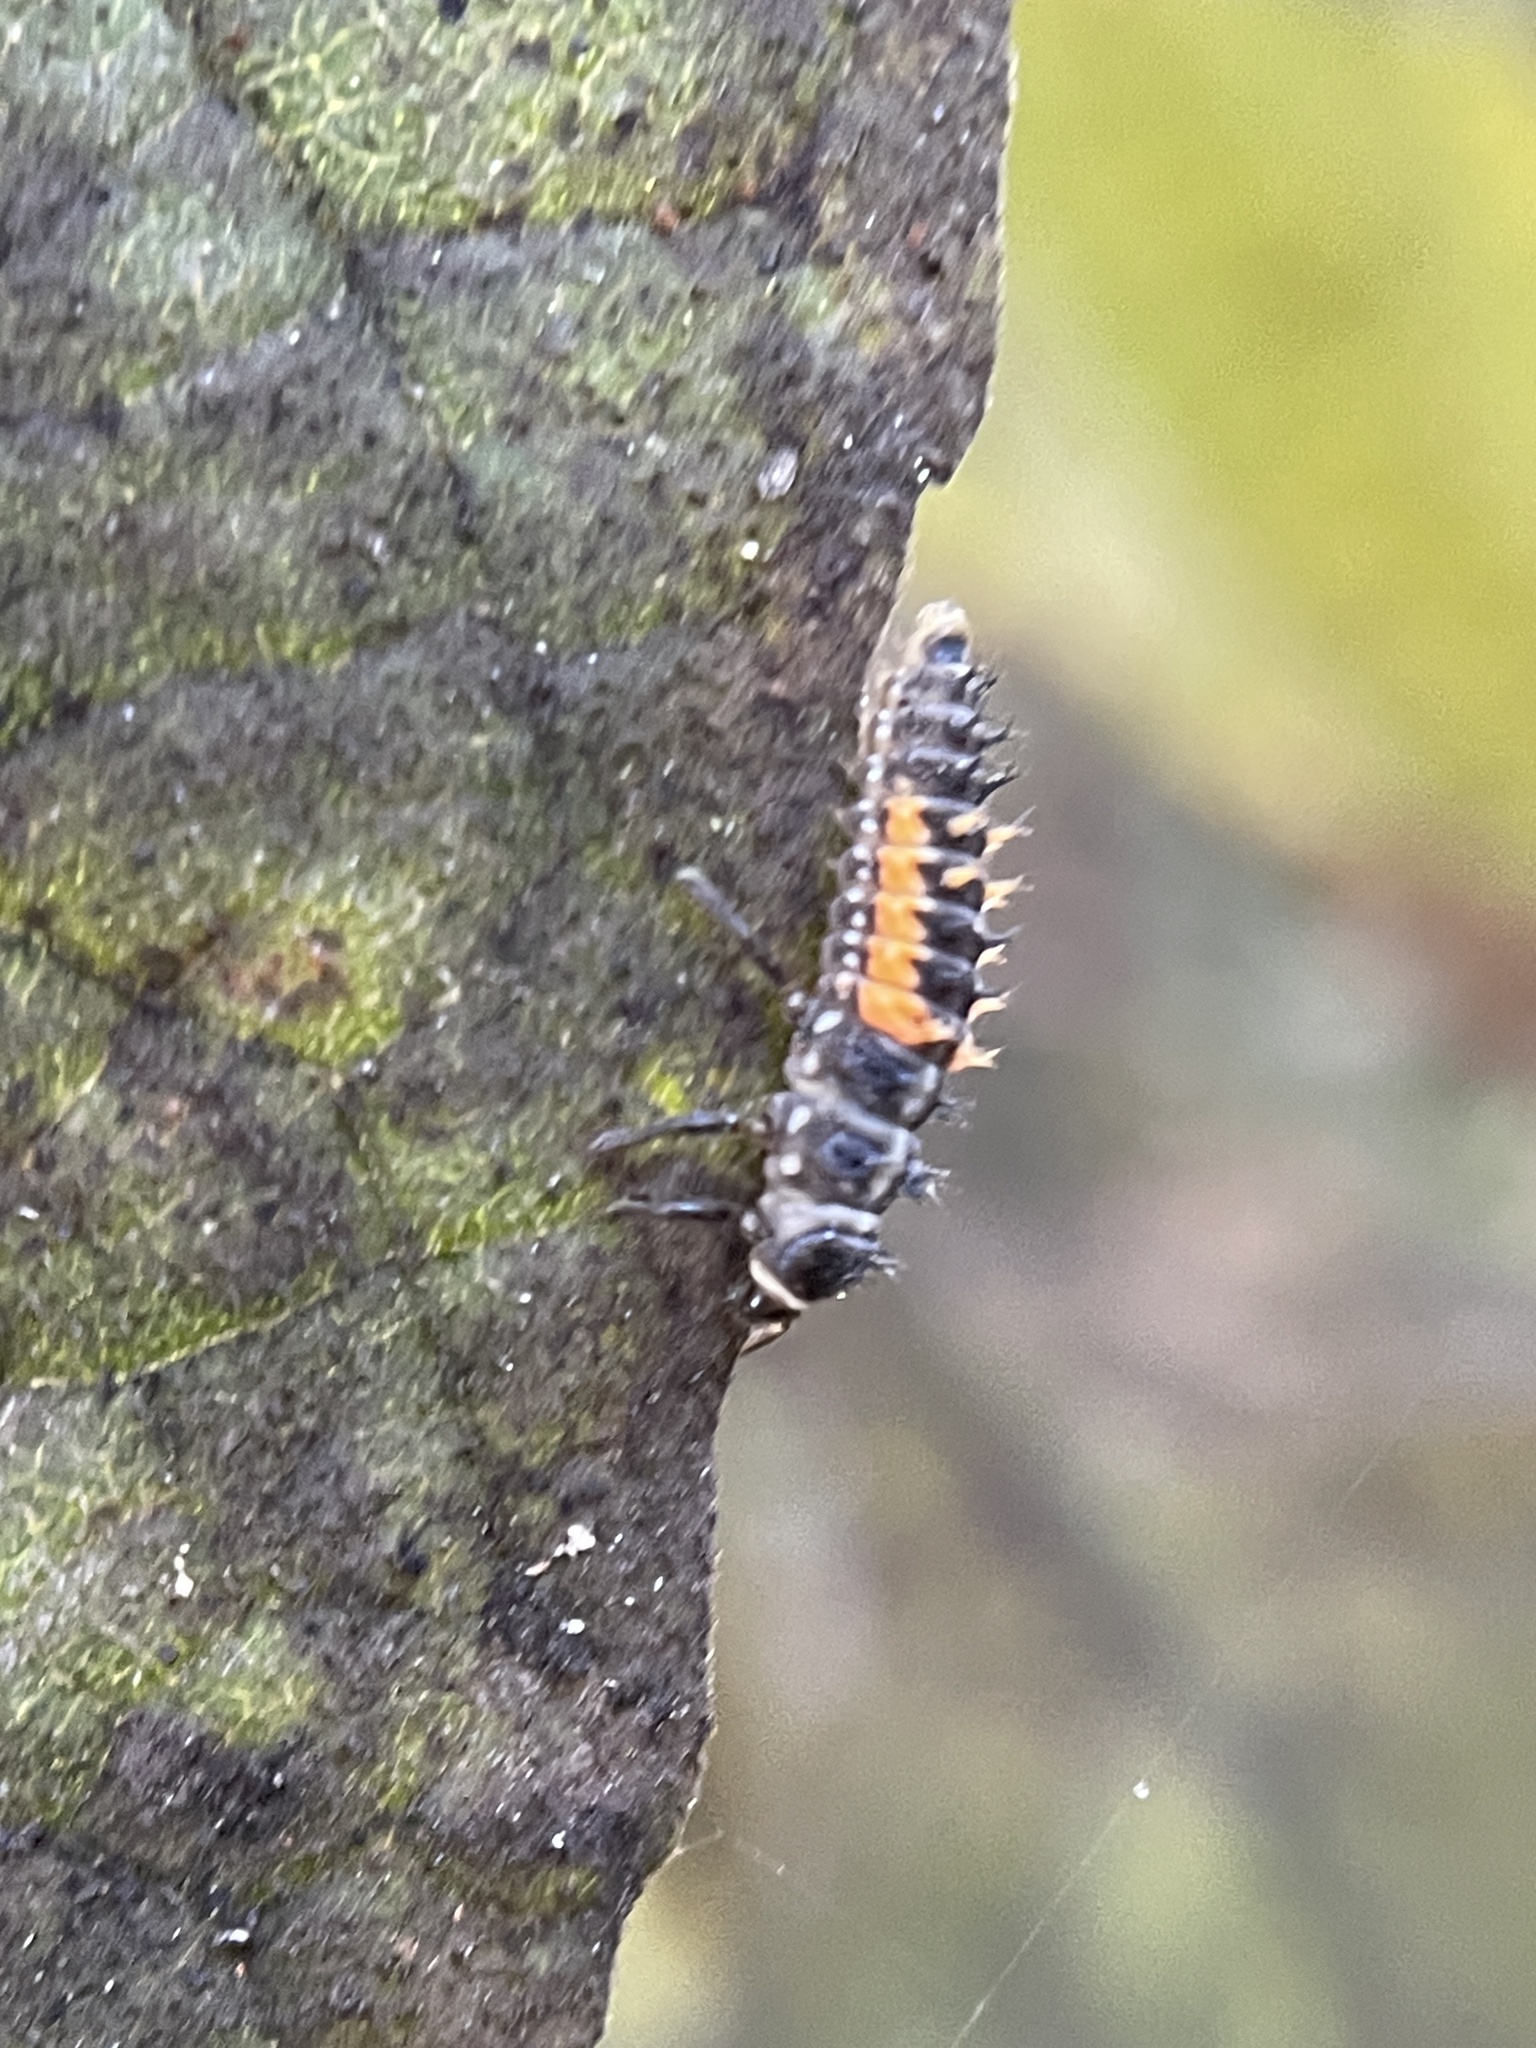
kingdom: Animalia
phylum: Arthropoda
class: Insecta
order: Coleoptera
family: Coccinellidae
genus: Harmonia
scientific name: Harmonia axyridis
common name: Harlequin ladybird
